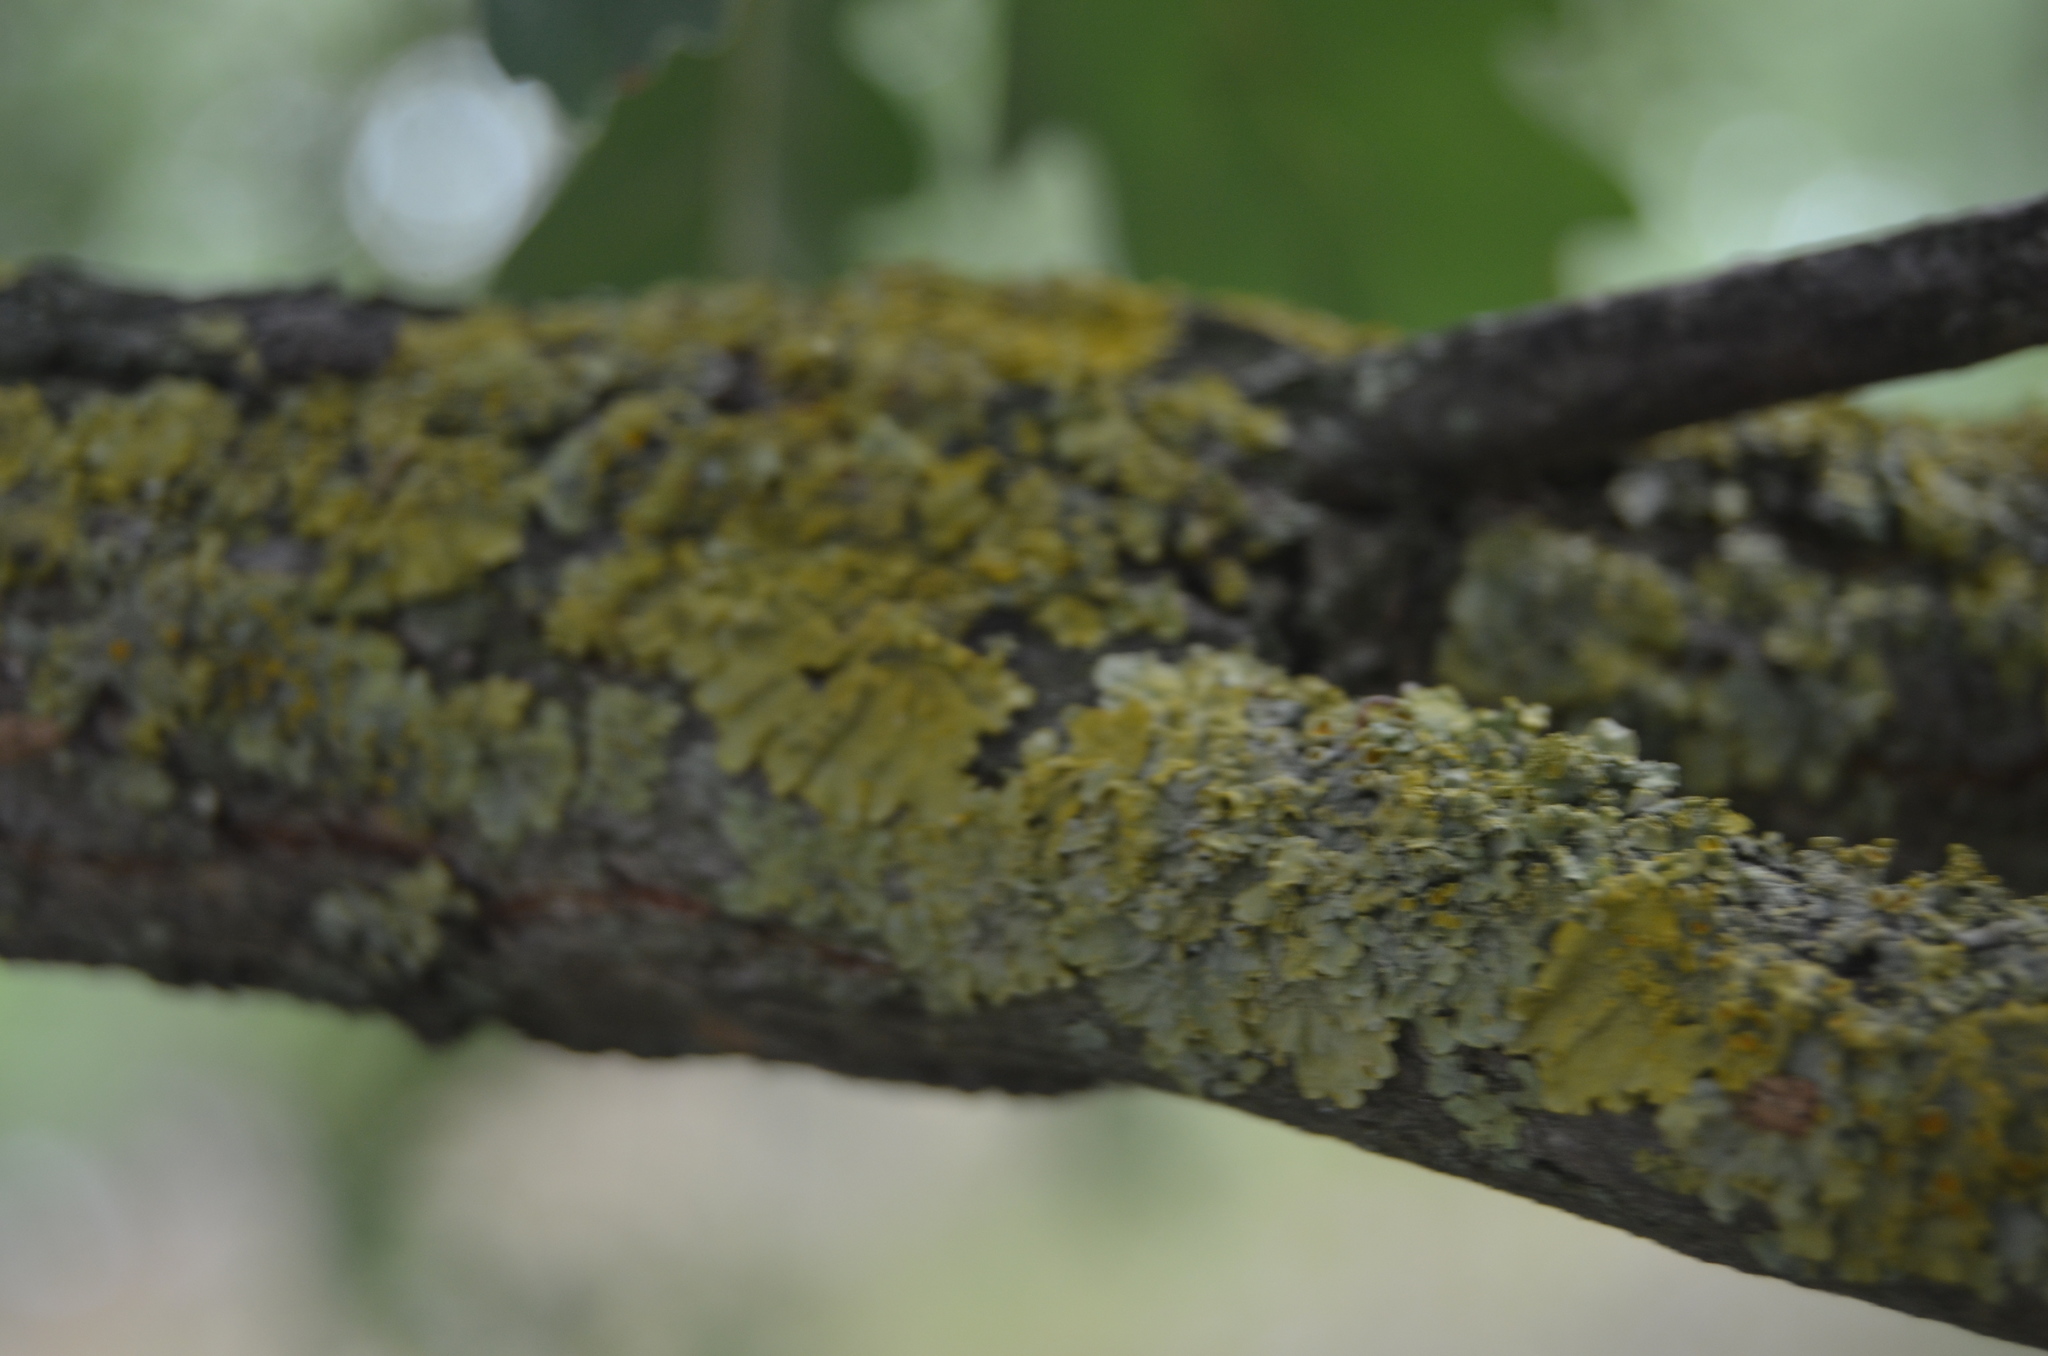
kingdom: Fungi
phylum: Ascomycota
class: Lecanoromycetes
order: Teloschistales
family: Teloschistaceae
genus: Xanthoria
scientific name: Xanthoria parietina
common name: Common orange lichen
